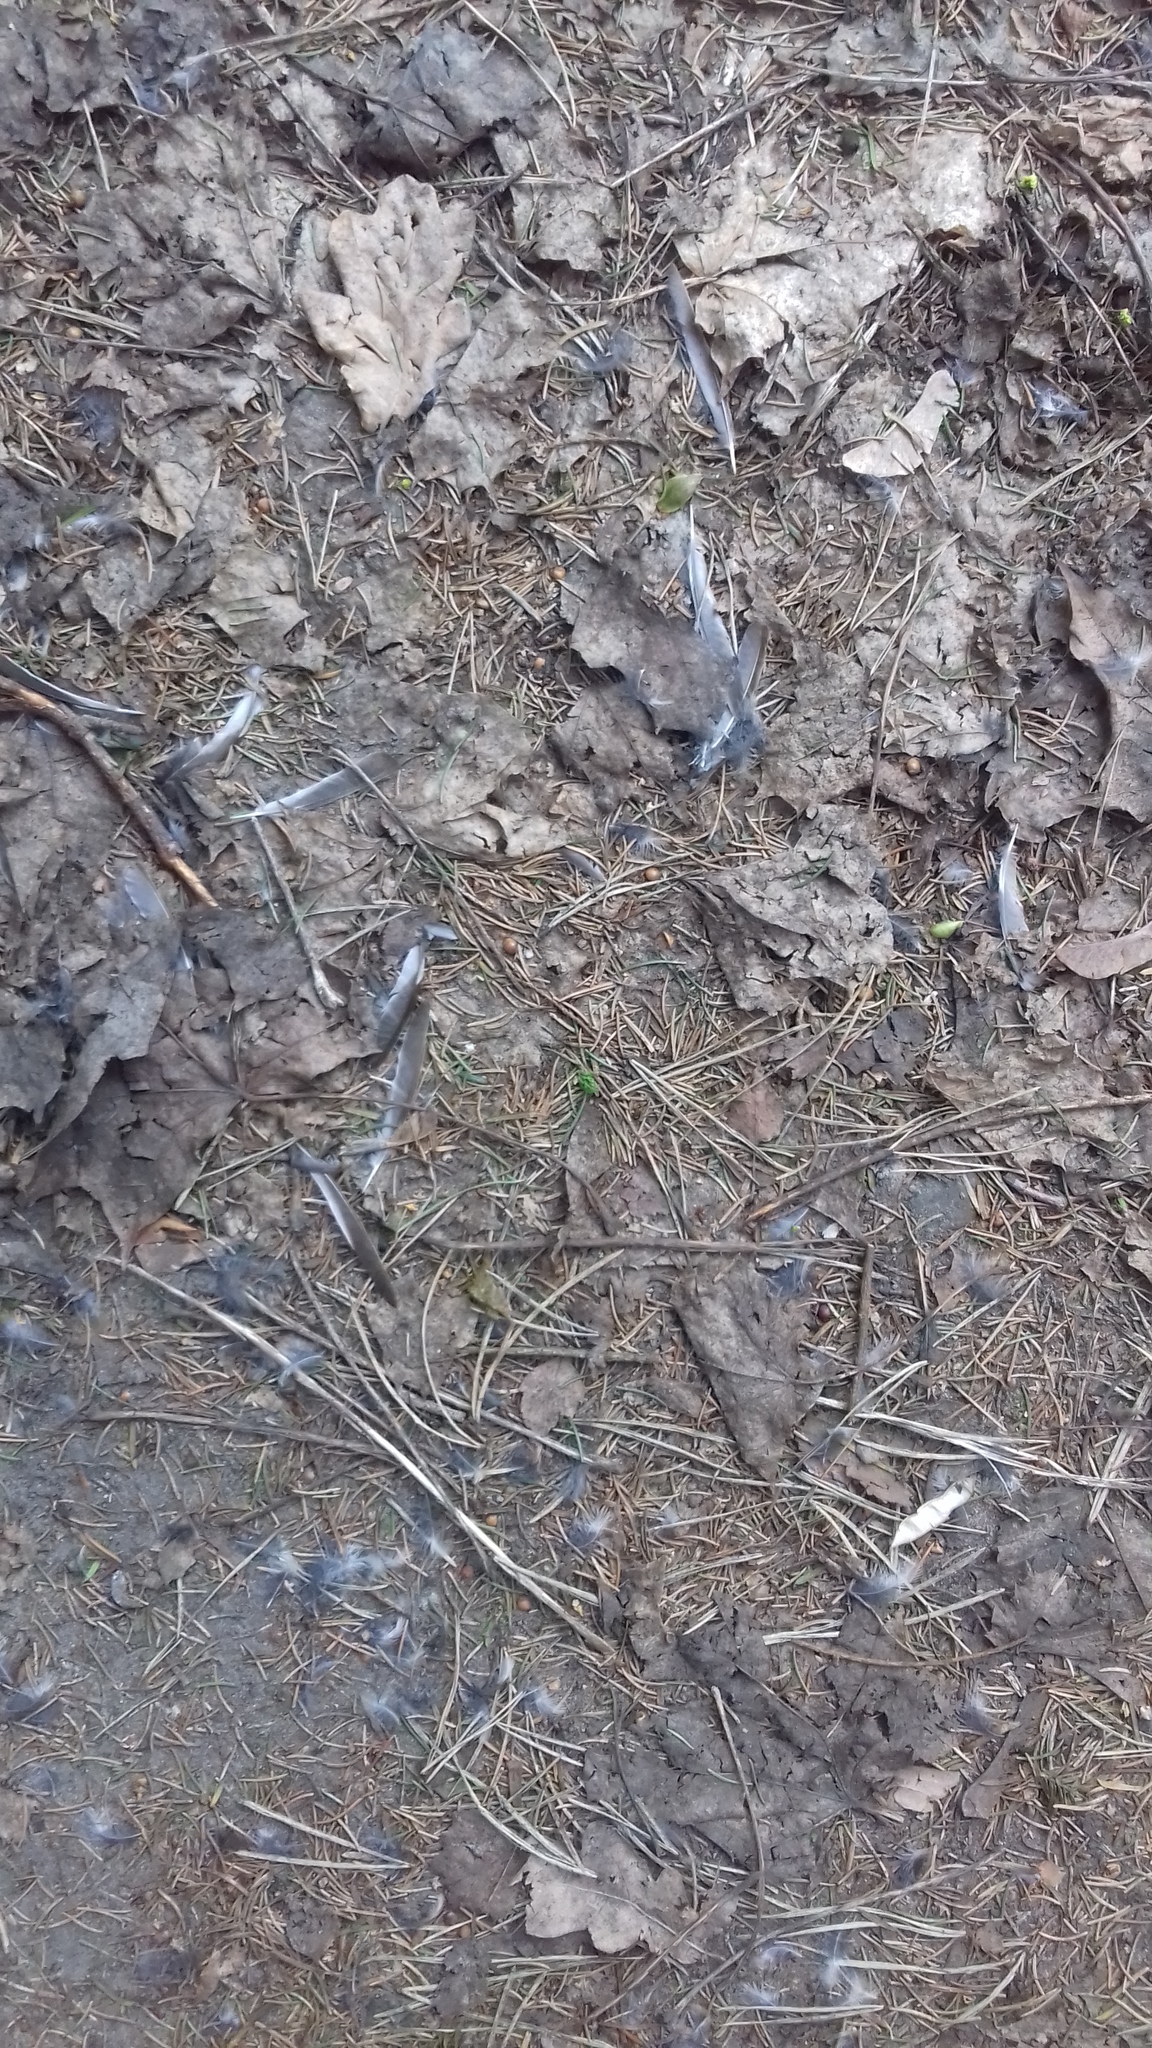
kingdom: Animalia
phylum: Chordata
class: Aves
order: Passeriformes
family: Fringillidae
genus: Fringilla
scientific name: Fringilla coelebs
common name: Common chaffinch
